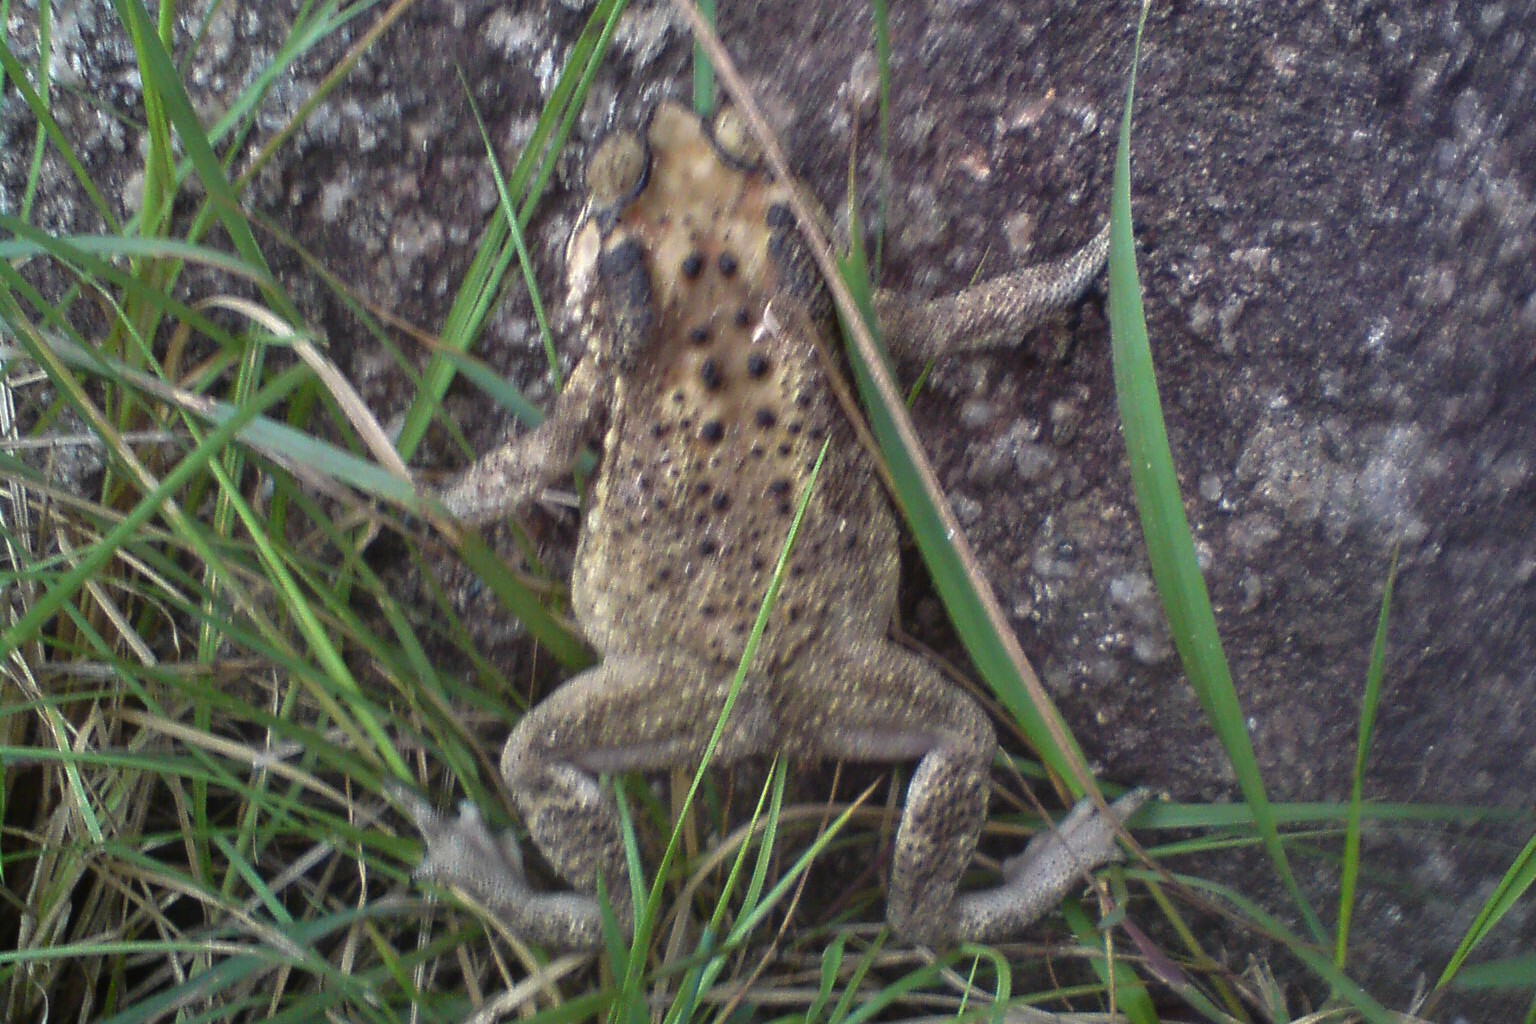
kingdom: Animalia
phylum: Chordata
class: Amphibia
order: Anura
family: Bufonidae
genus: Duttaphrynus
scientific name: Duttaphrynus melanostictus
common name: Common sunda toad
